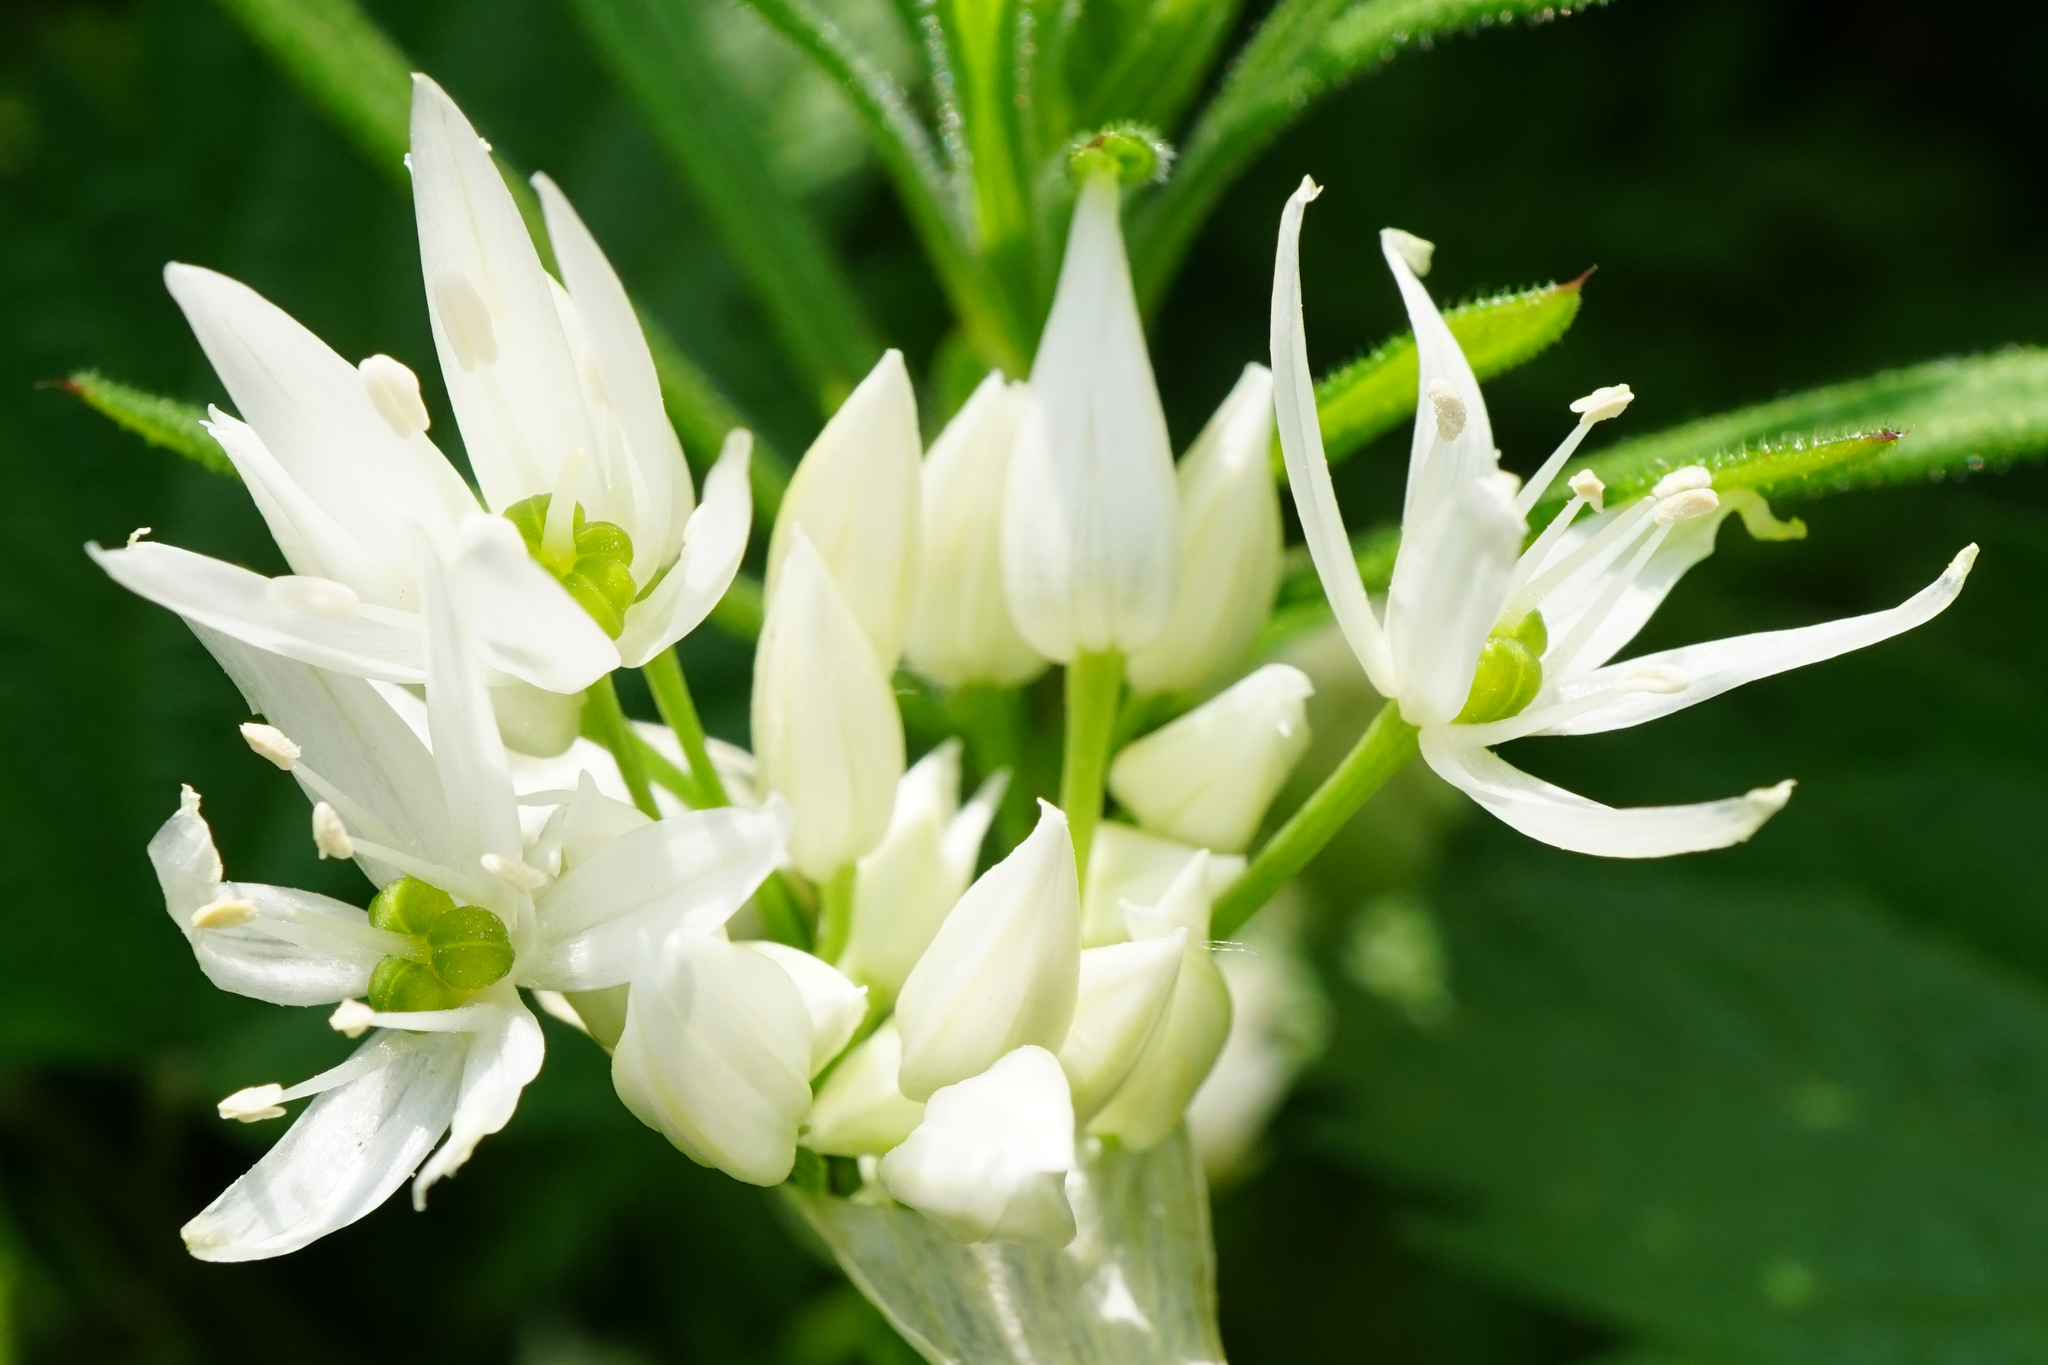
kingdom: Plantae
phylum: Tracheophyta
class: Liliopsida
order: Asparagales
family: Amaryllidaceae
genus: Allium
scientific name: Allium ursinum
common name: Ramsons
